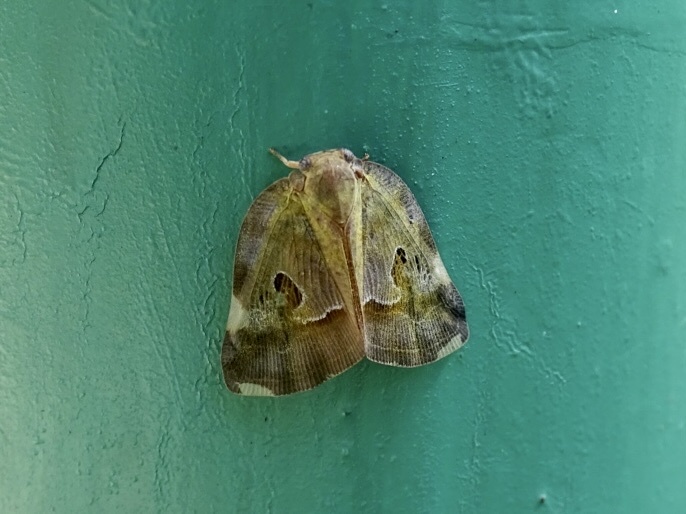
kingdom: Animalia
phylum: Arthropoda
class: Insecta
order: Hemiptera
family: Ricaniidae
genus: Ricania
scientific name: Ricania guttata
